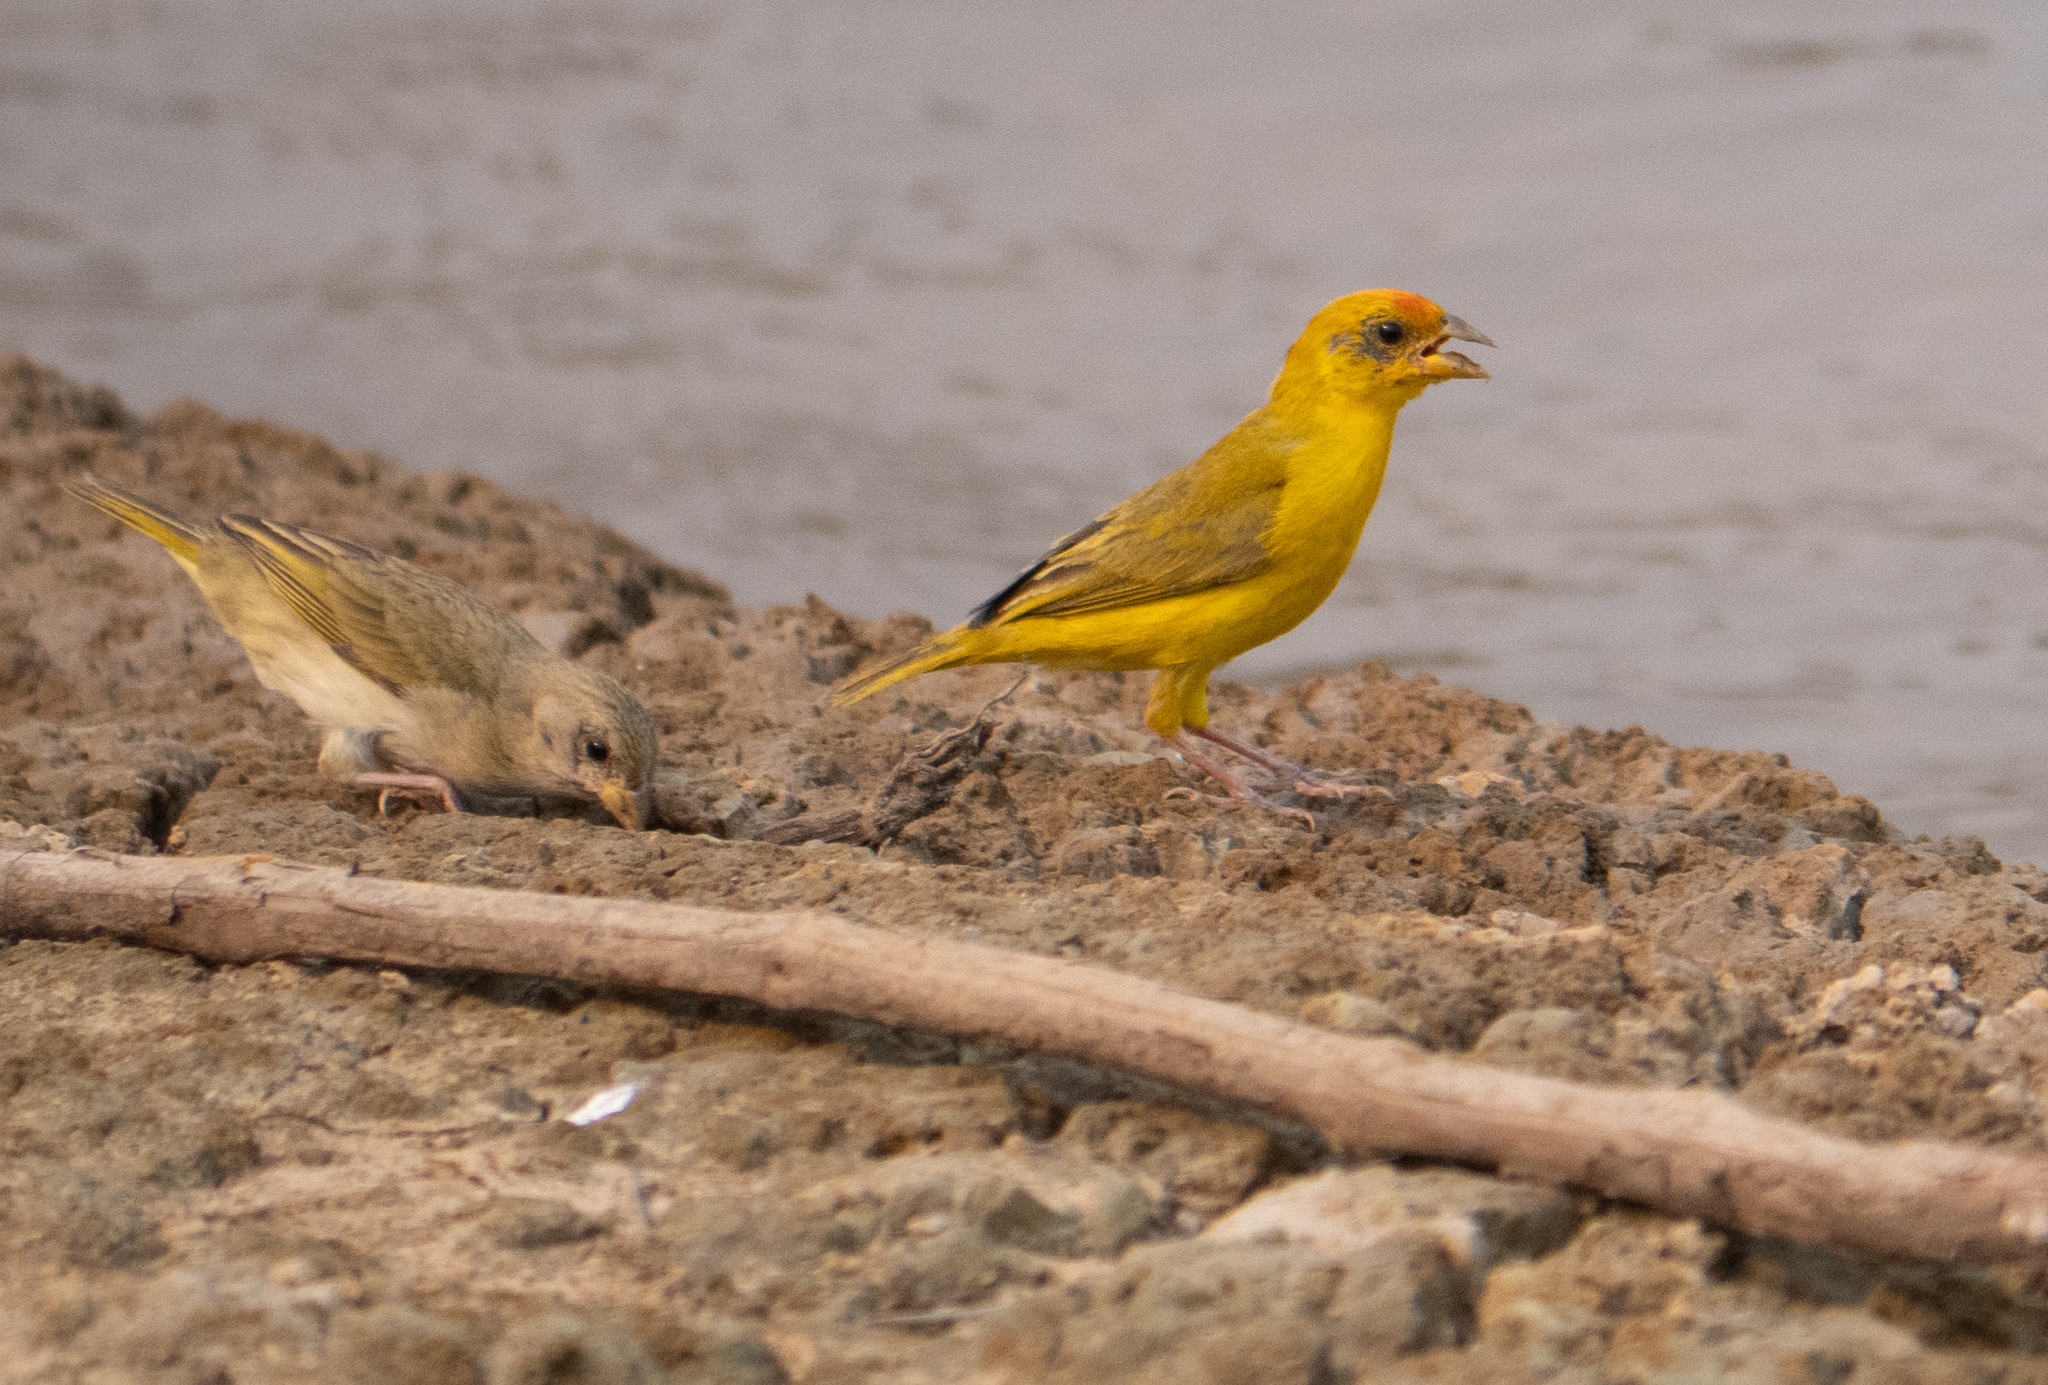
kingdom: Animalia
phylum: Chordata
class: Aves
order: Passeriformes
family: Thraupidae
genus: Sicalis
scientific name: Sicalis columbiana
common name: Orange-fronted yellow-finch
